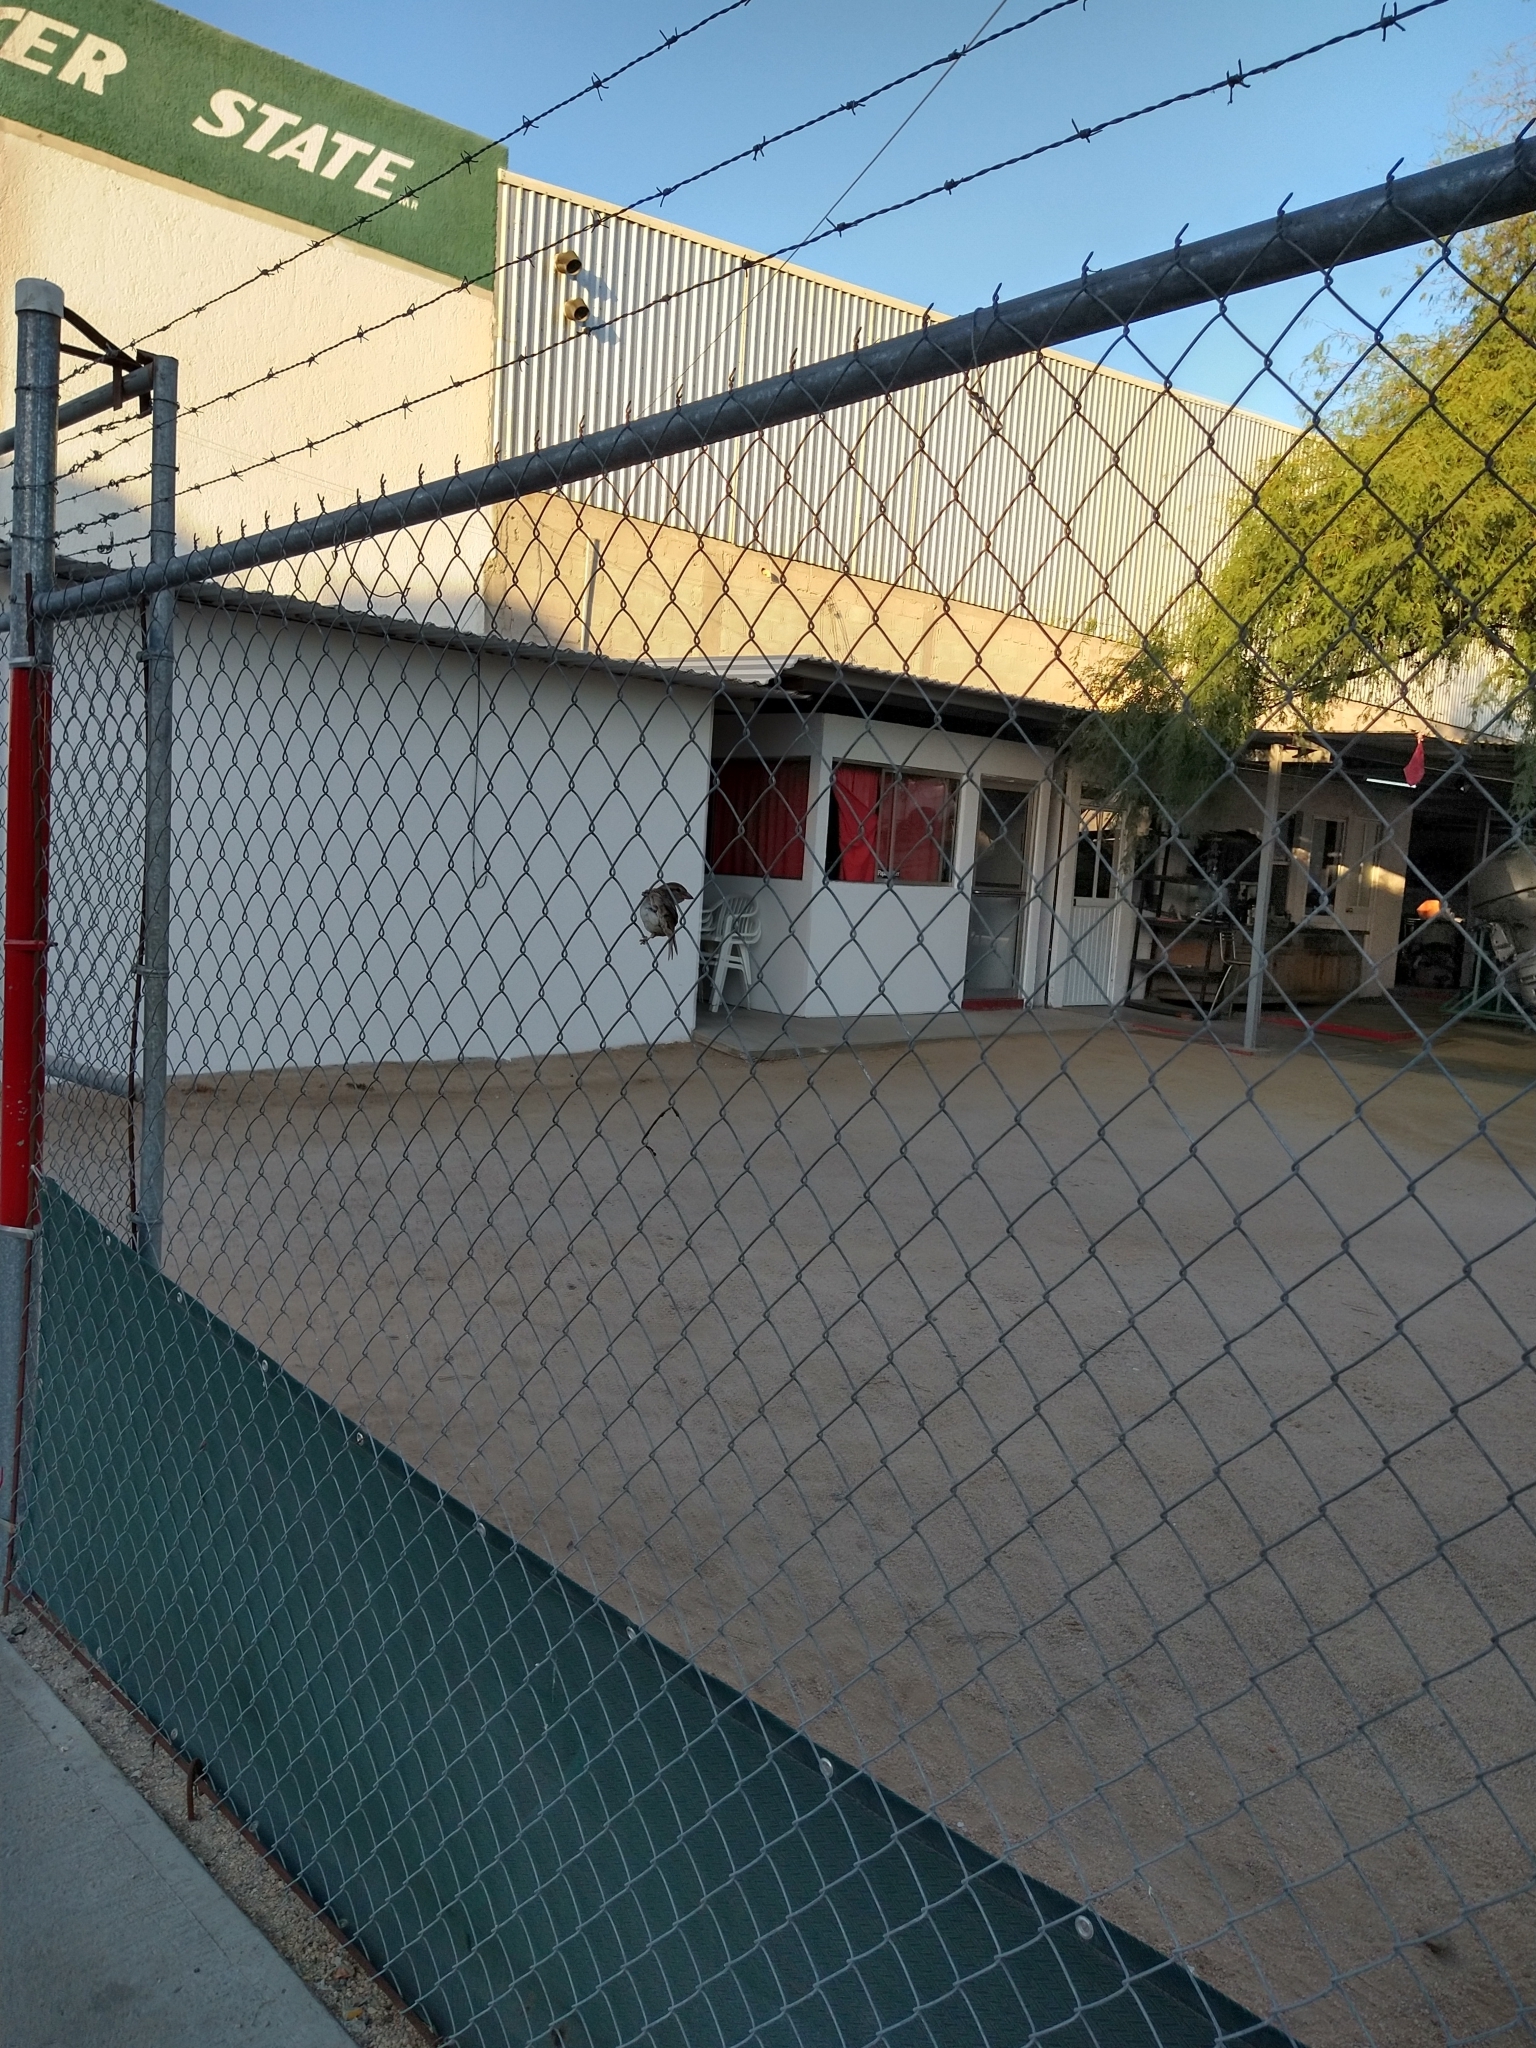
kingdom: Animalia
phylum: Chordata
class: Aves
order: Passeriformes
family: Passeridae
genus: Passer
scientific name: Passer domesticus
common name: House sparrow
